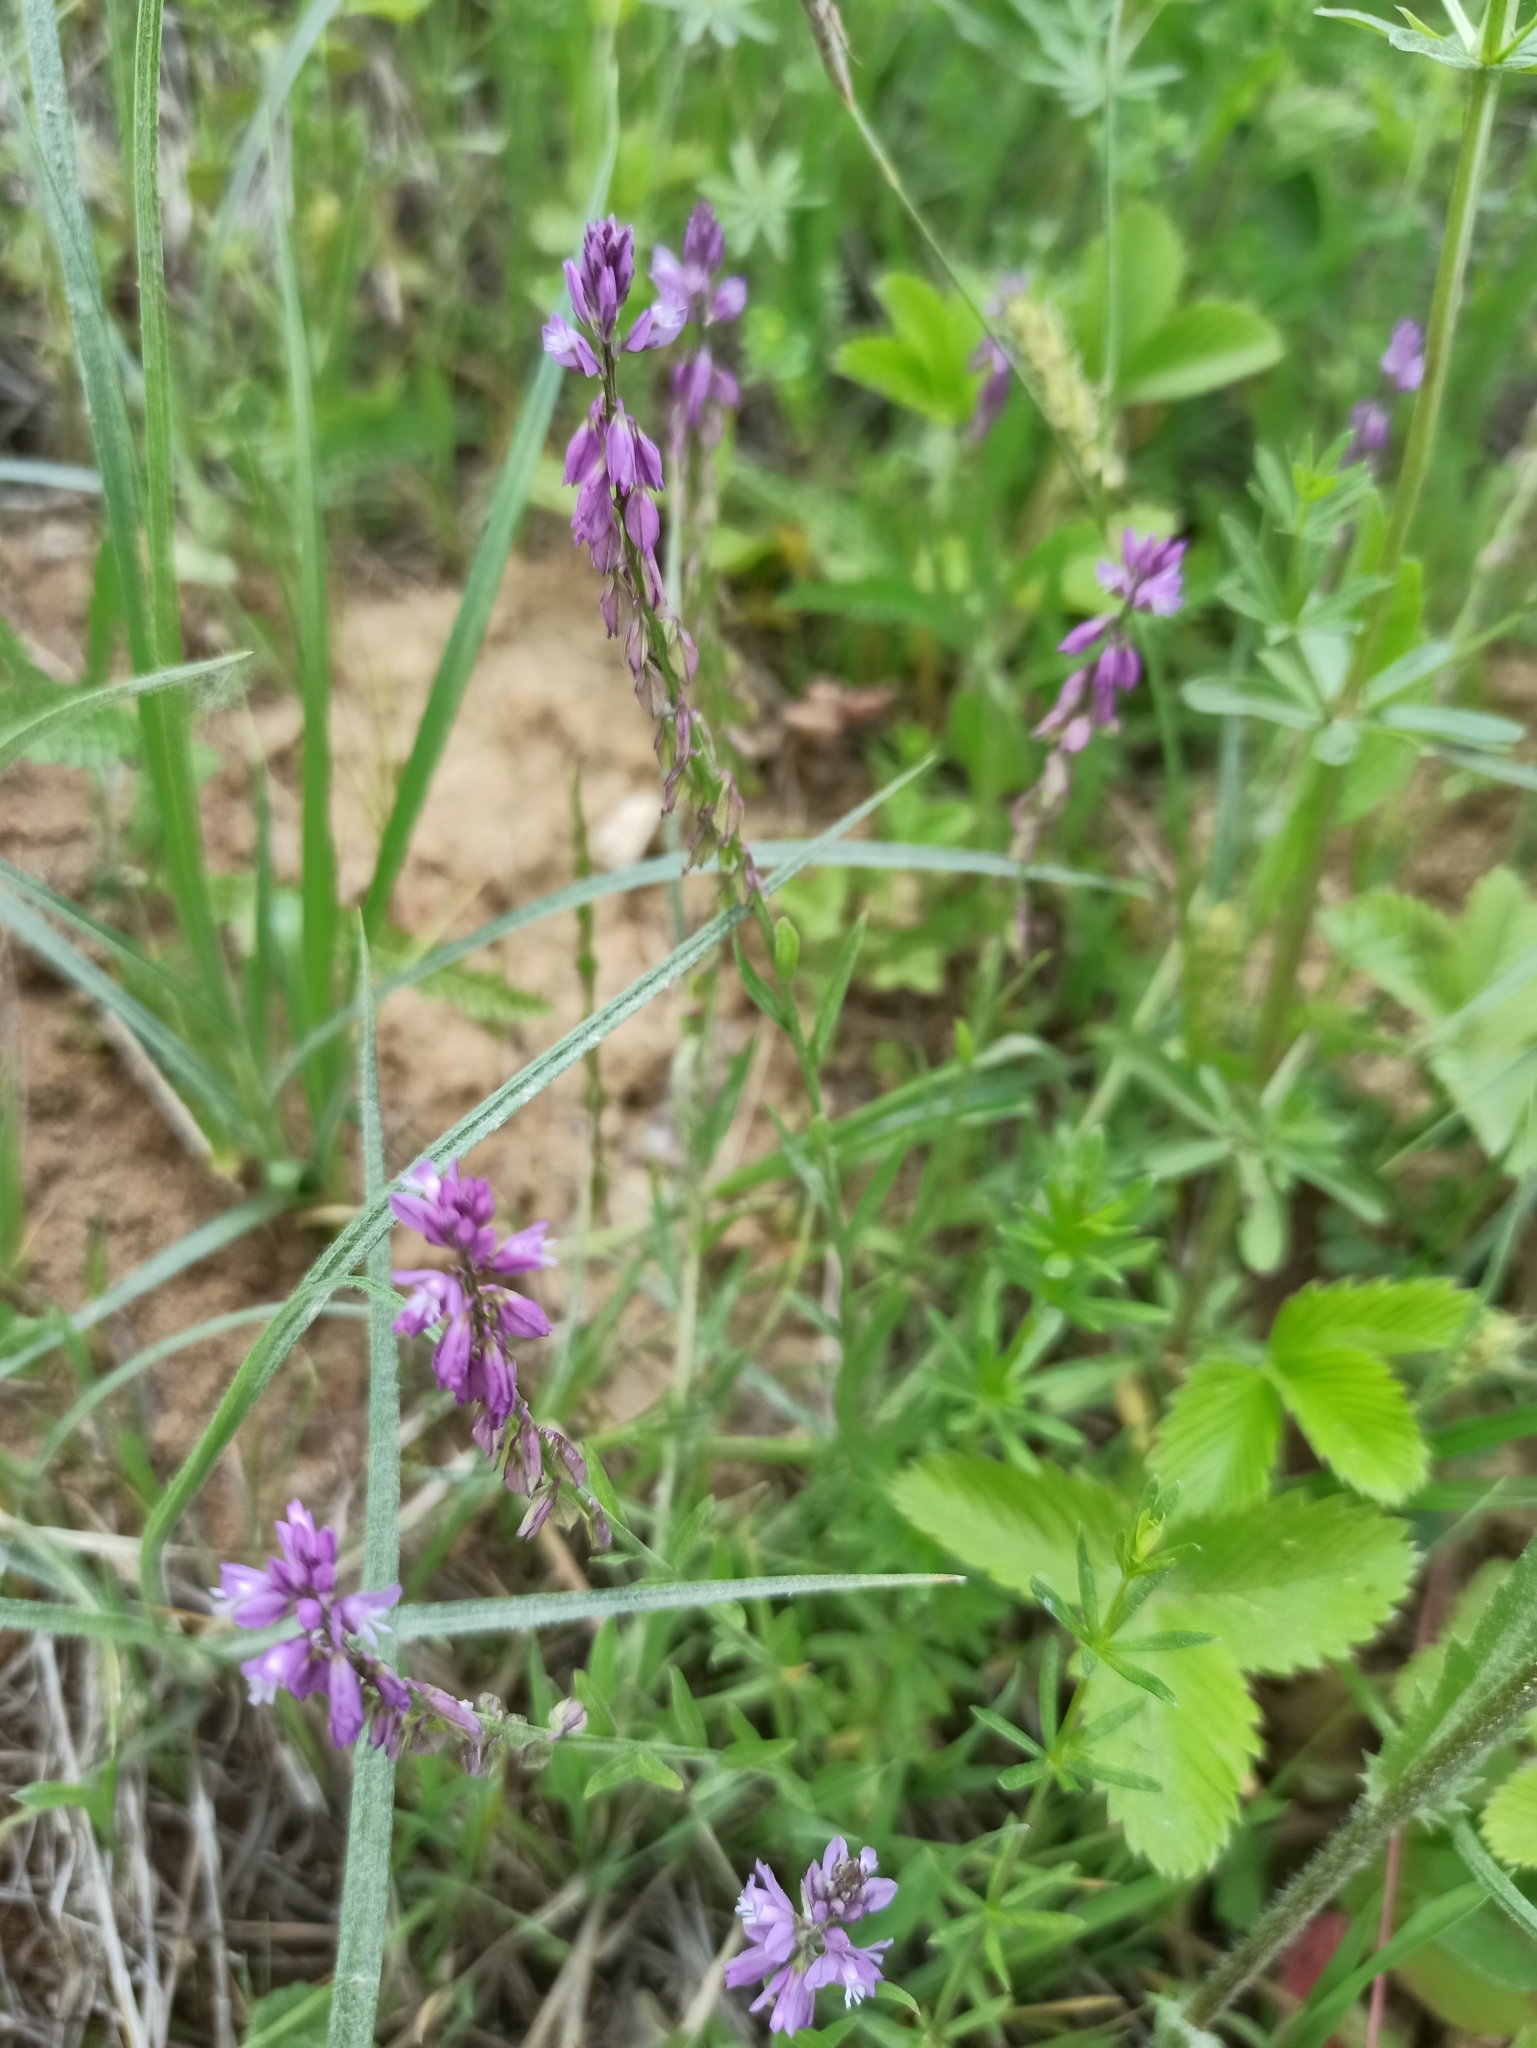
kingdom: Plantae
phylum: Tracheophyta
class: Magnoliopsida
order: Fabales
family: Polygalaceae
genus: Polygala
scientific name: Polygala comosa
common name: Tufted milkwort
